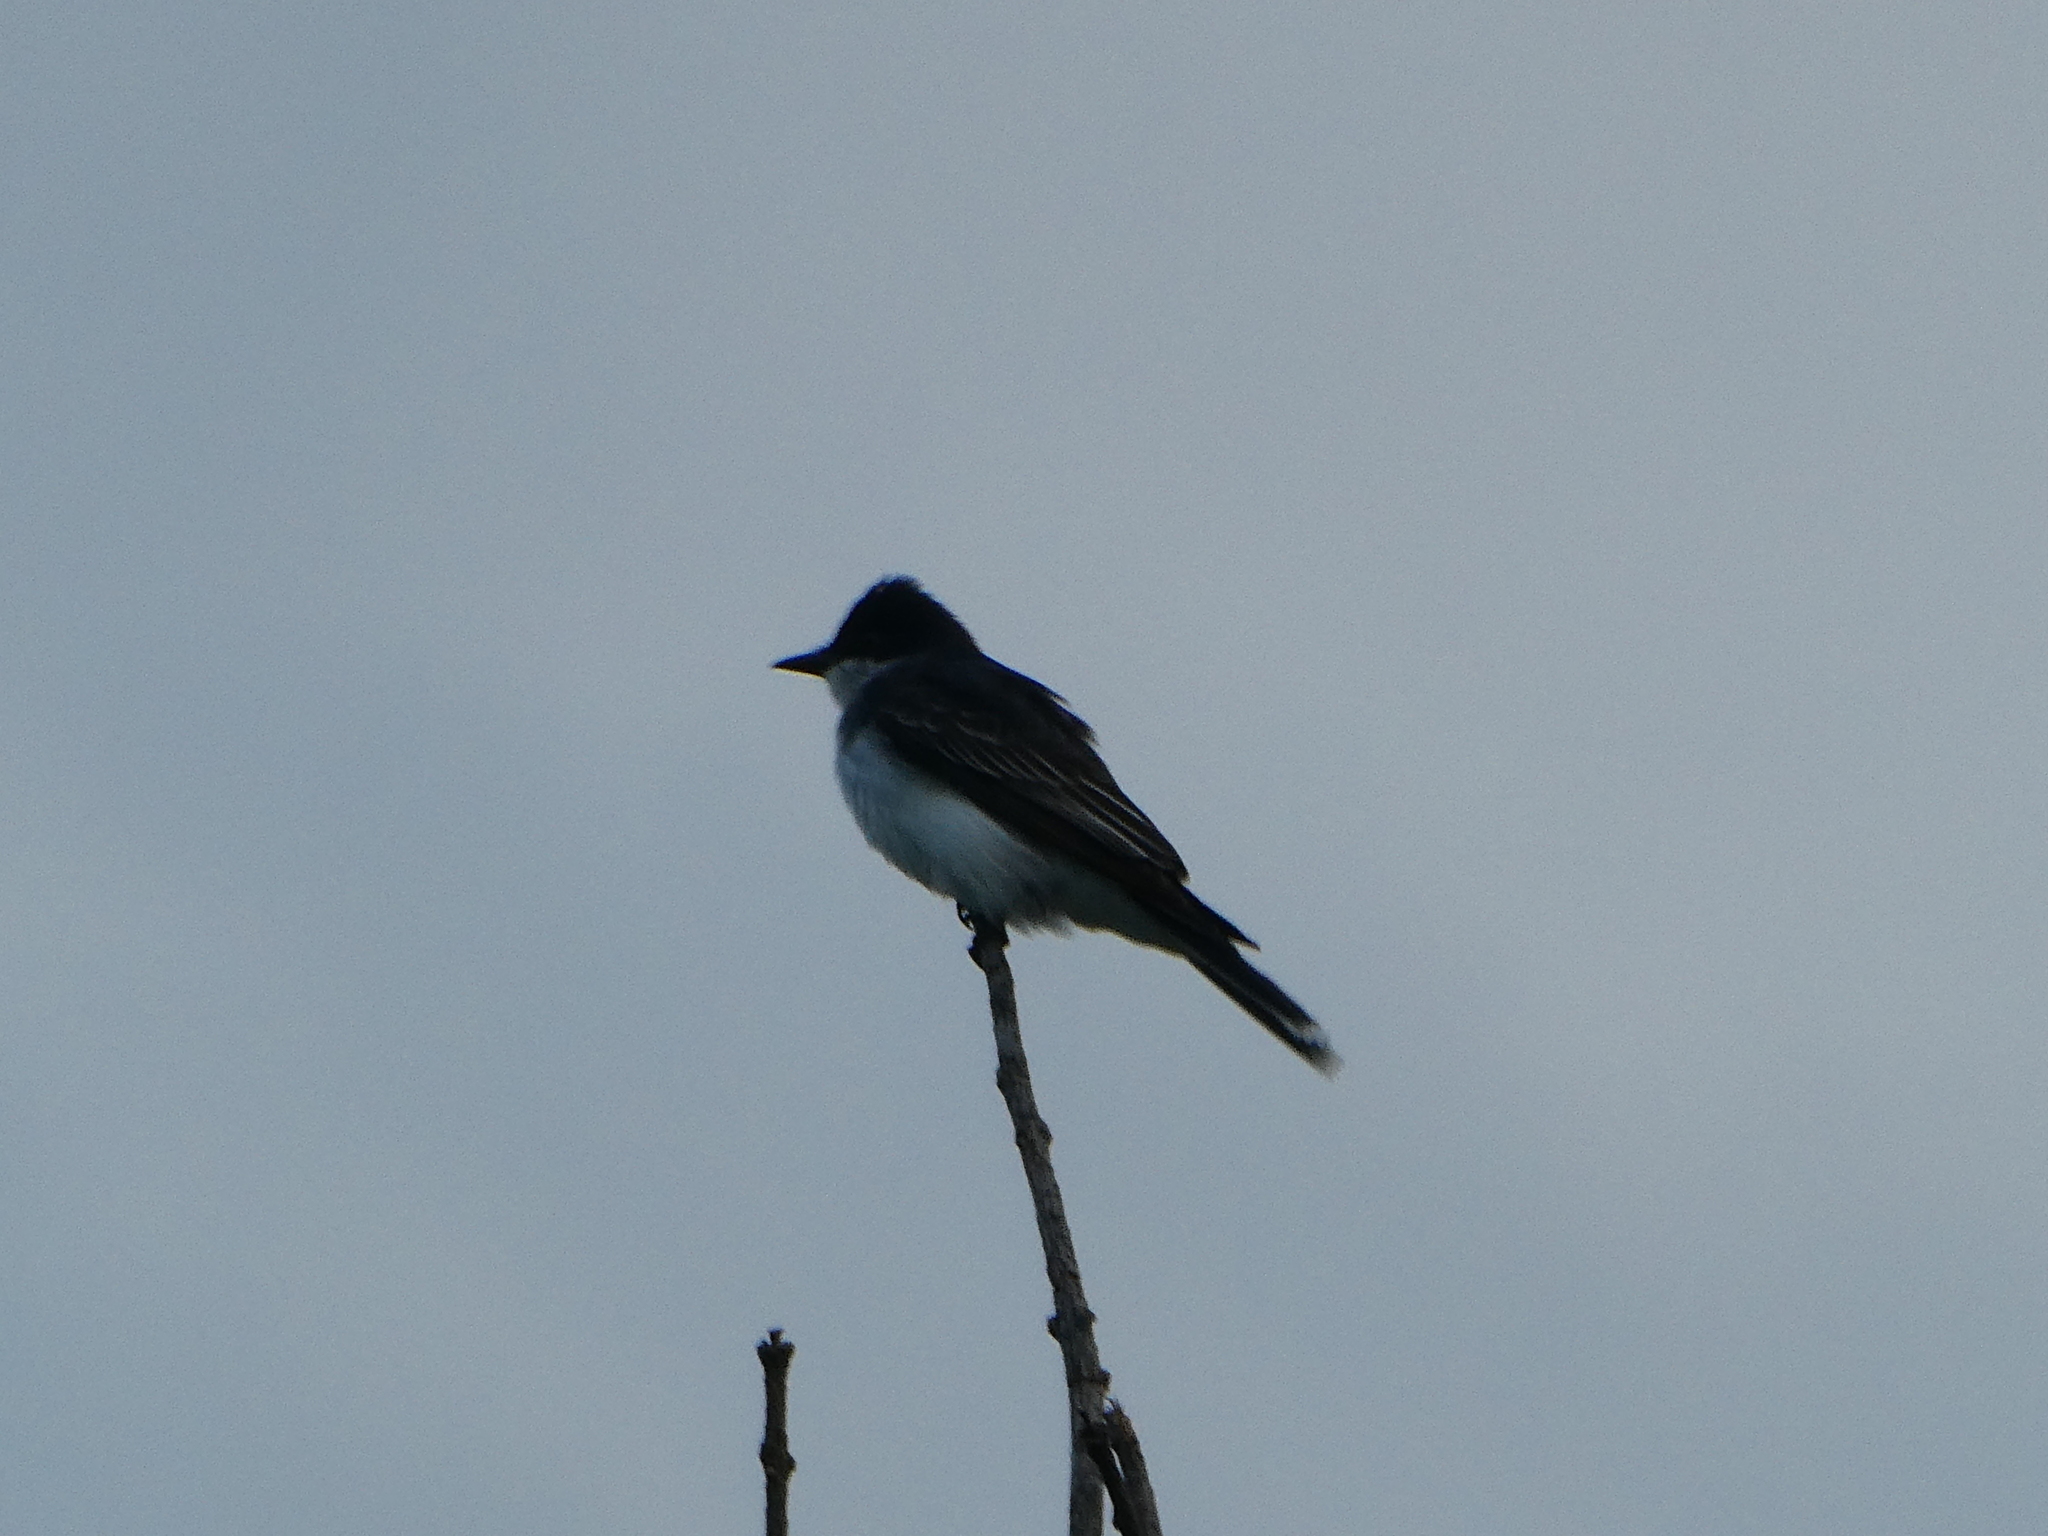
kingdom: Animalia
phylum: Chordata
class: Aves
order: Passeriformes
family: Tyrannidae
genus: Tyrannus
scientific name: Tyrannus tyrannus
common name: Eastern kingbird
